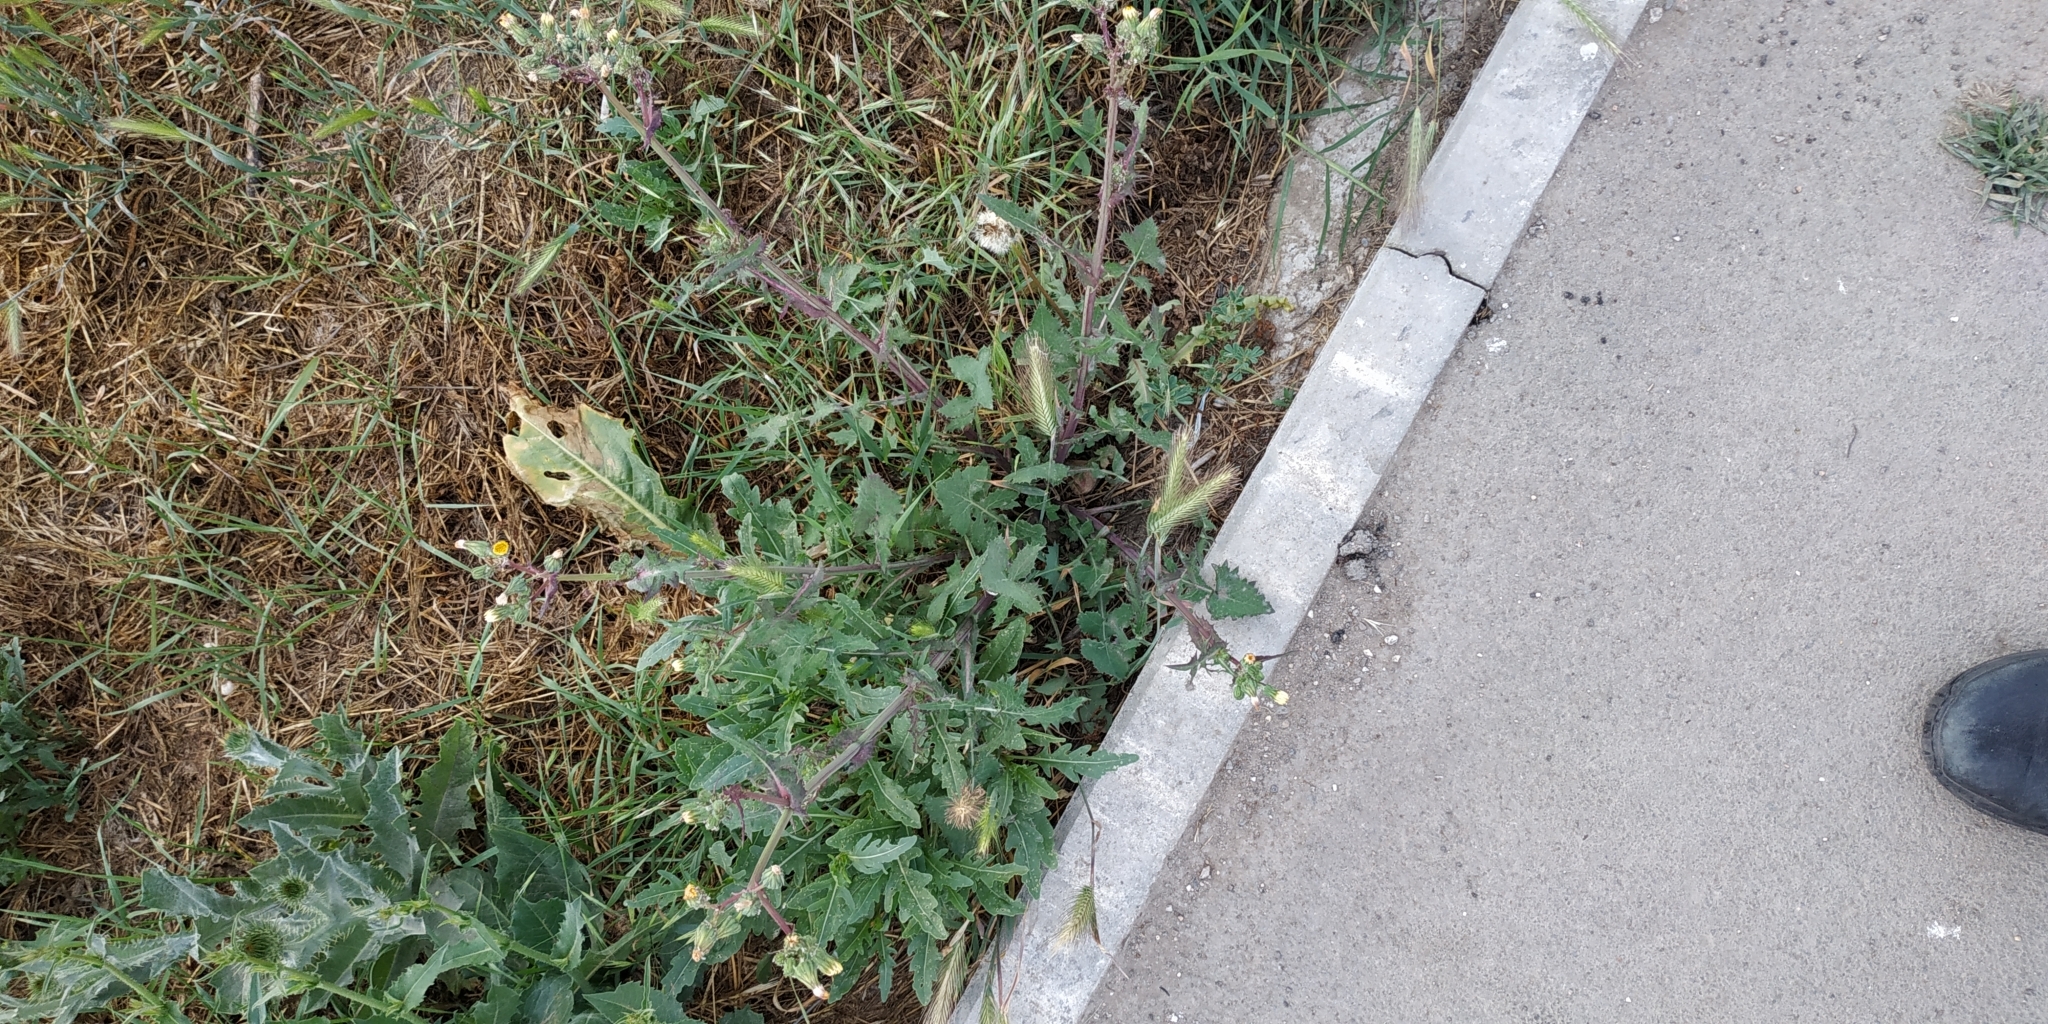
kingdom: Plantae
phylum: Tracheophyta
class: Magnoliopsida
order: Asterales
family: Asteraceae
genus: Sonchus
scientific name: Sonchus oleraceus
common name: Common sowthistle
